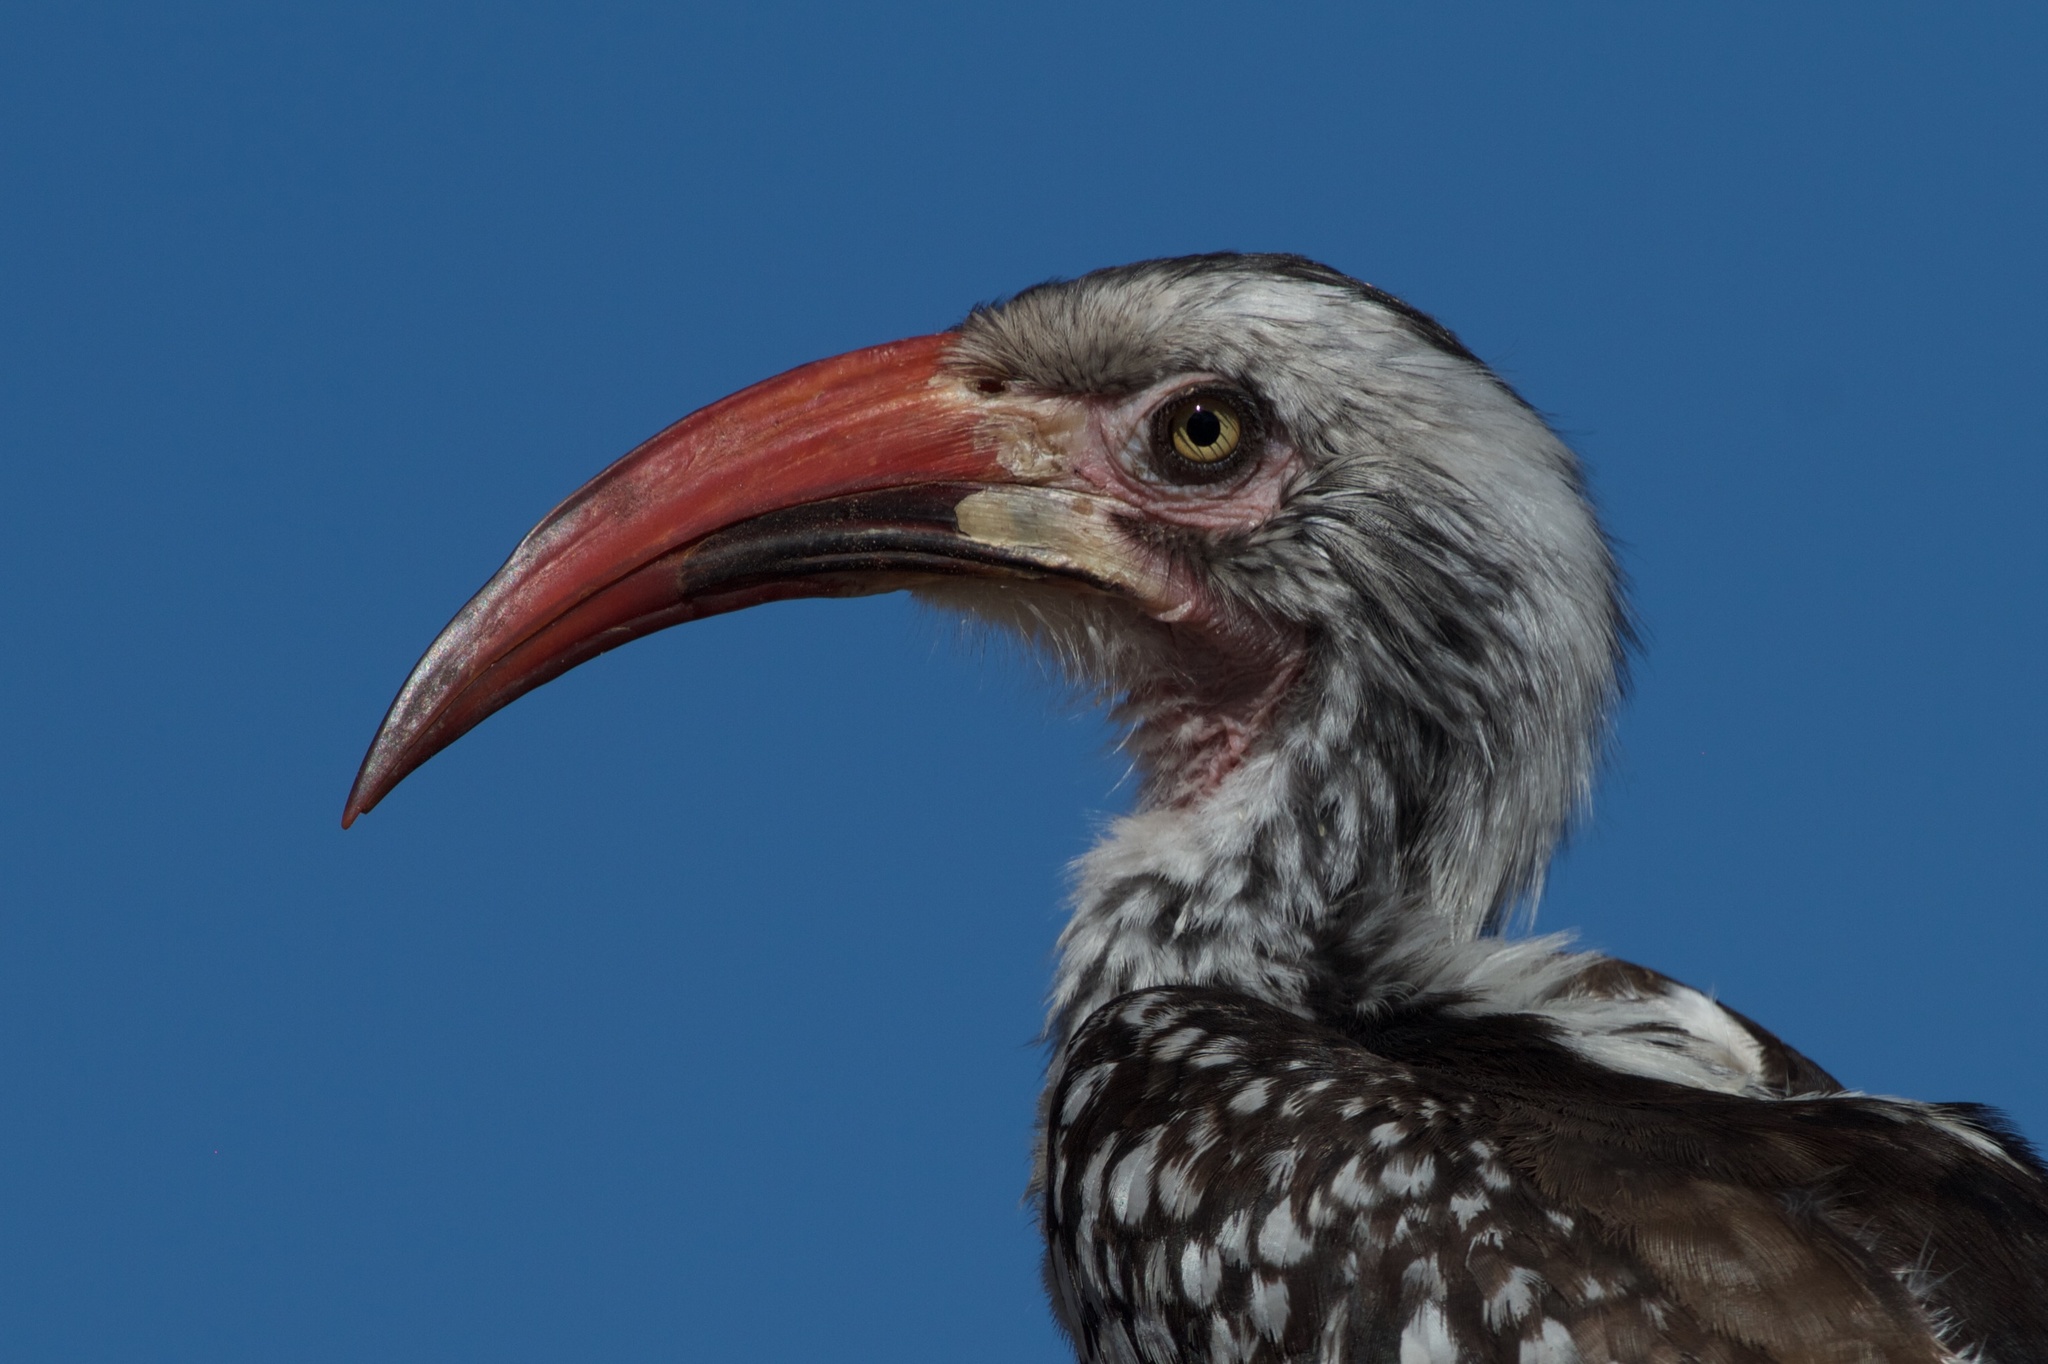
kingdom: Animalia
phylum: Chordata
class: Aves
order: Bucerotiformes
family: Bucerotidae
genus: Tockus
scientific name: Tockus rufirostris
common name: Southern red-billed hornbill
